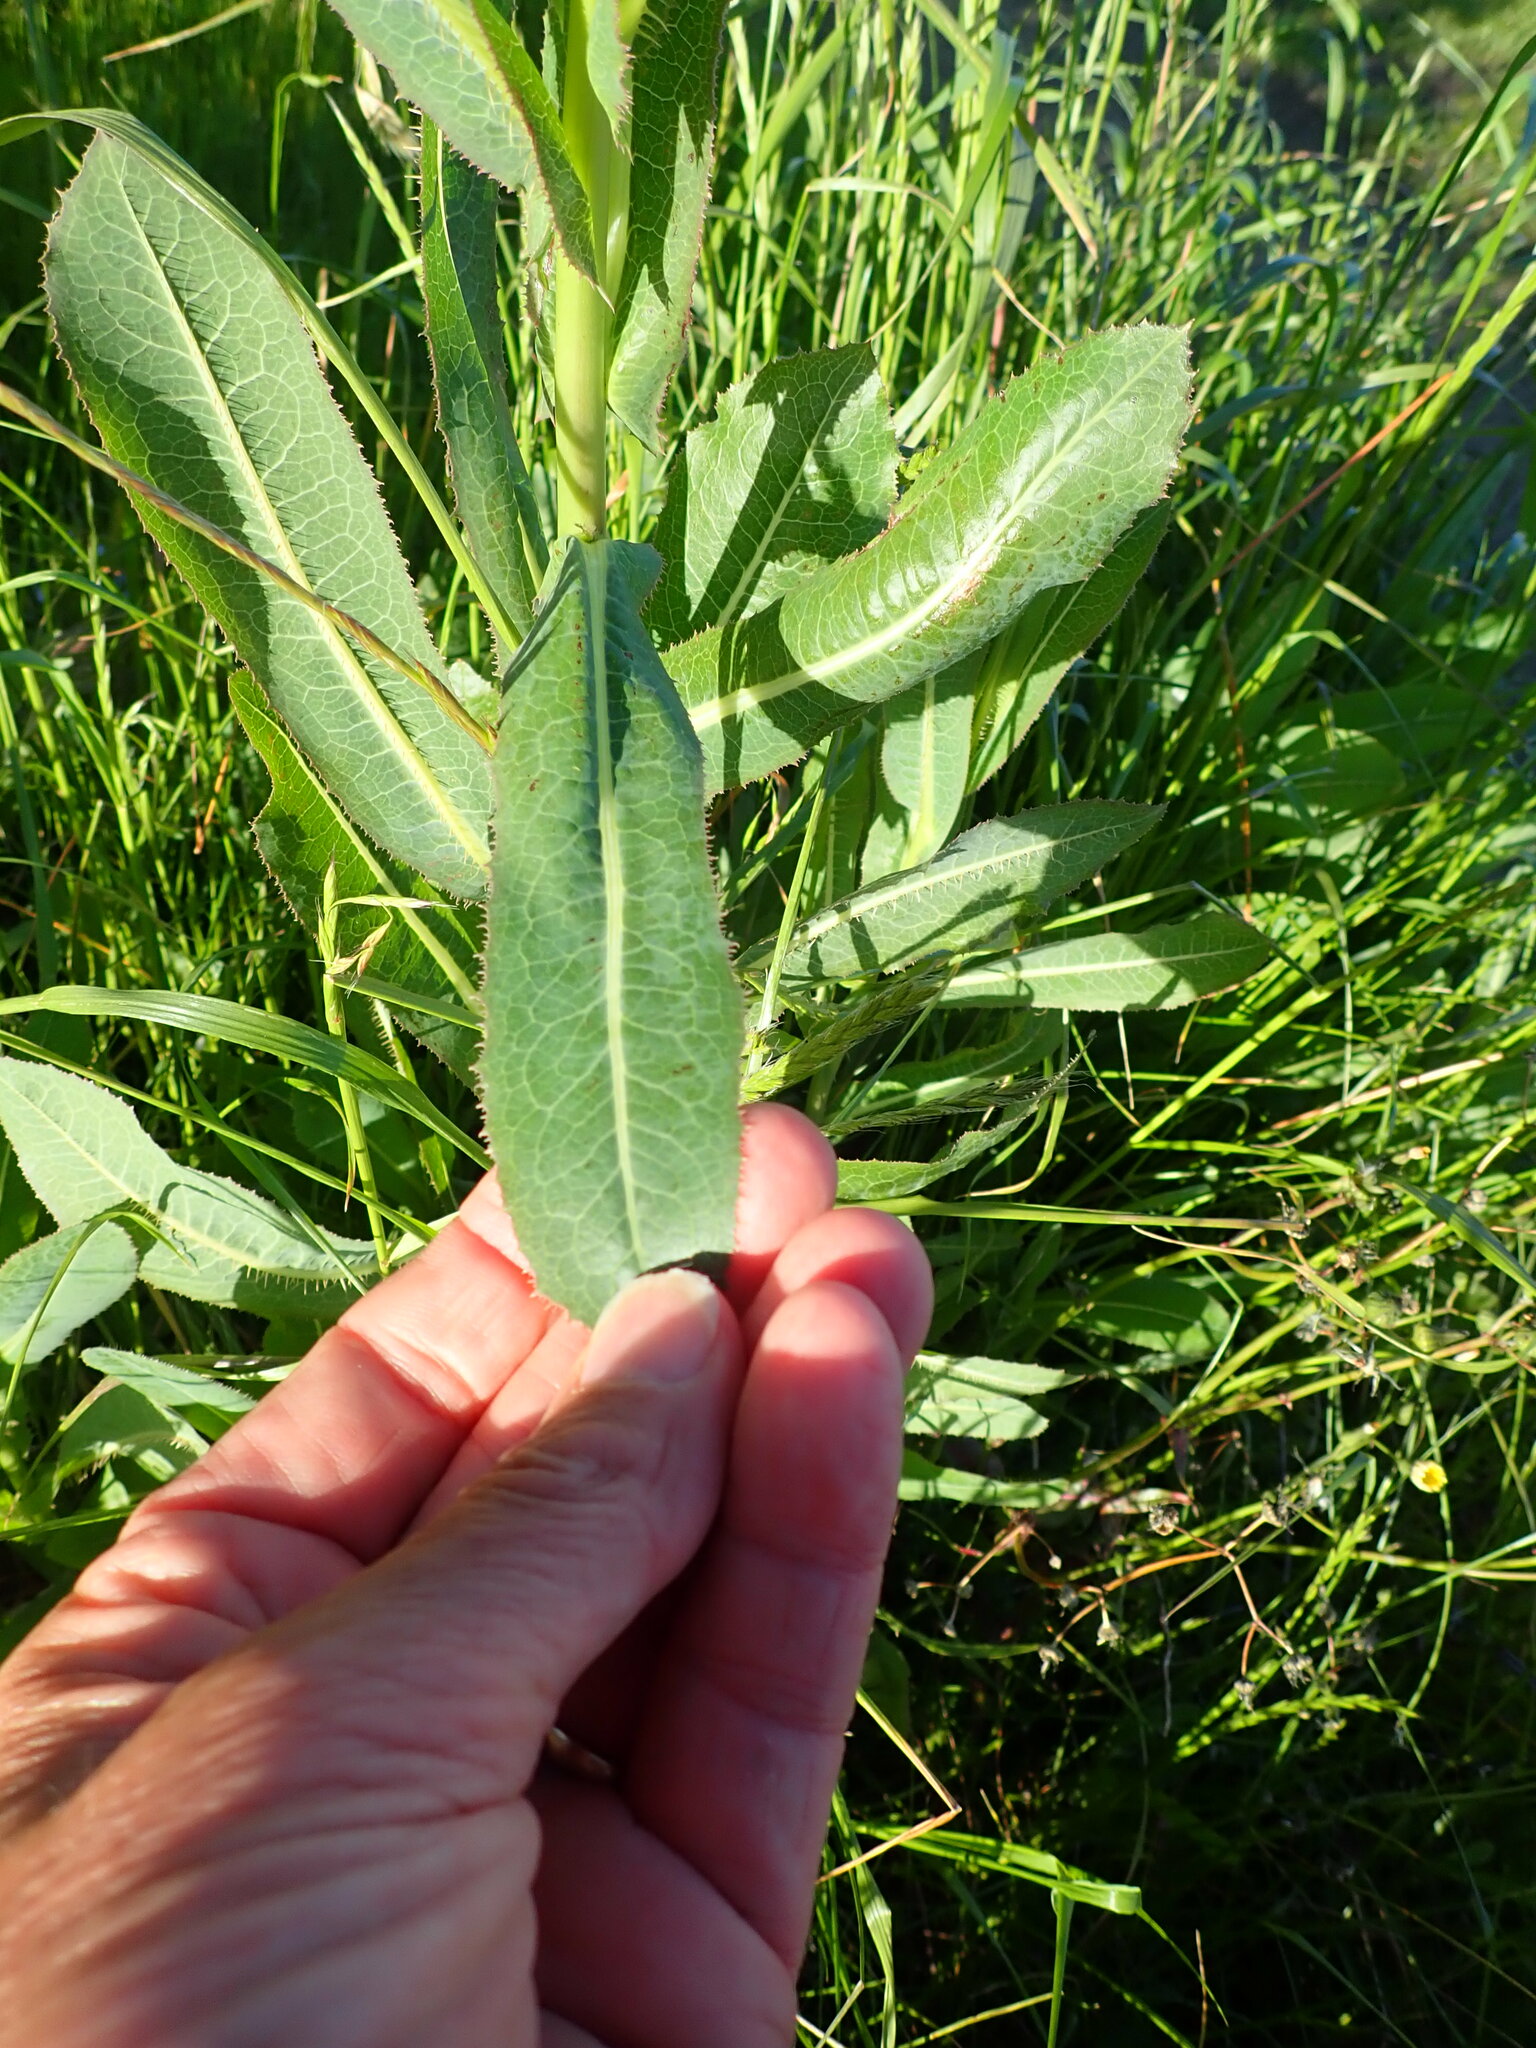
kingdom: Plantae
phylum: Tracheophyta
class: Magnoliopsida
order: Asterales
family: Asteraceae
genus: Lactuca
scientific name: Lactuca serriola
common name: Prickly lettuce
